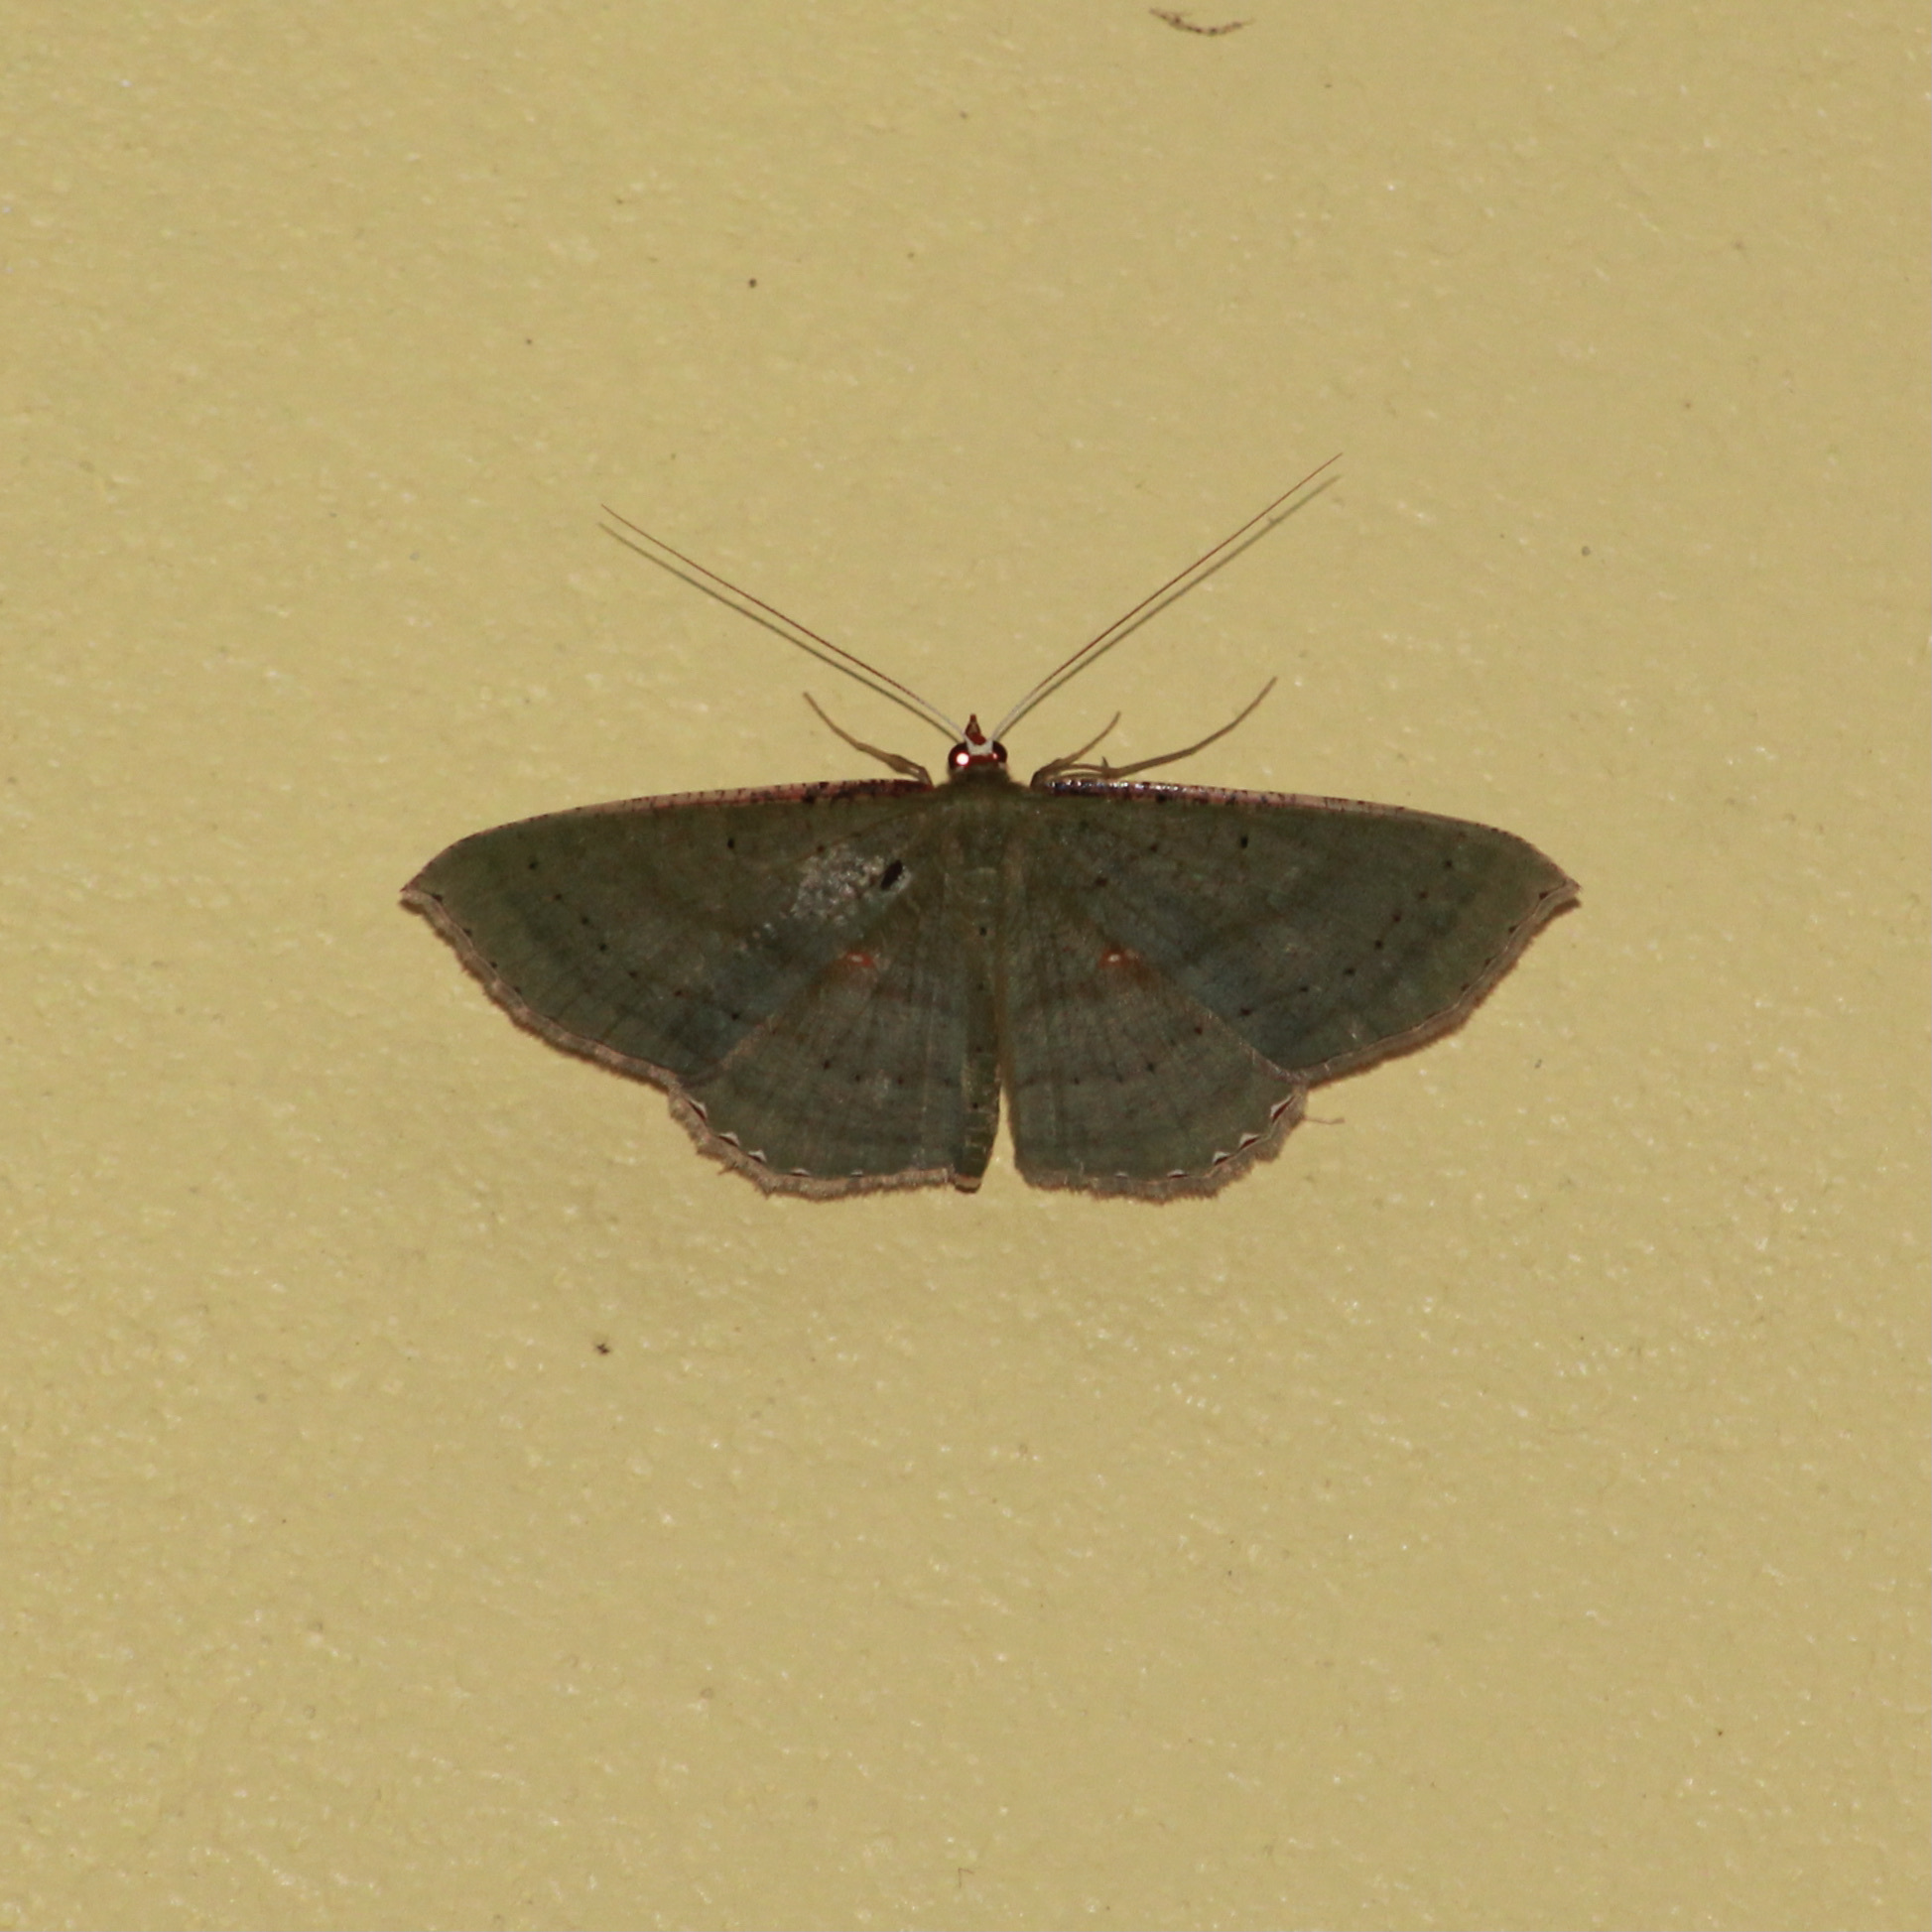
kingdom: Animalia
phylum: Arthropoda
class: Insecta
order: Lepidoptera
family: Geometridae
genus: Ametris
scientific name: Ametris nitocris
